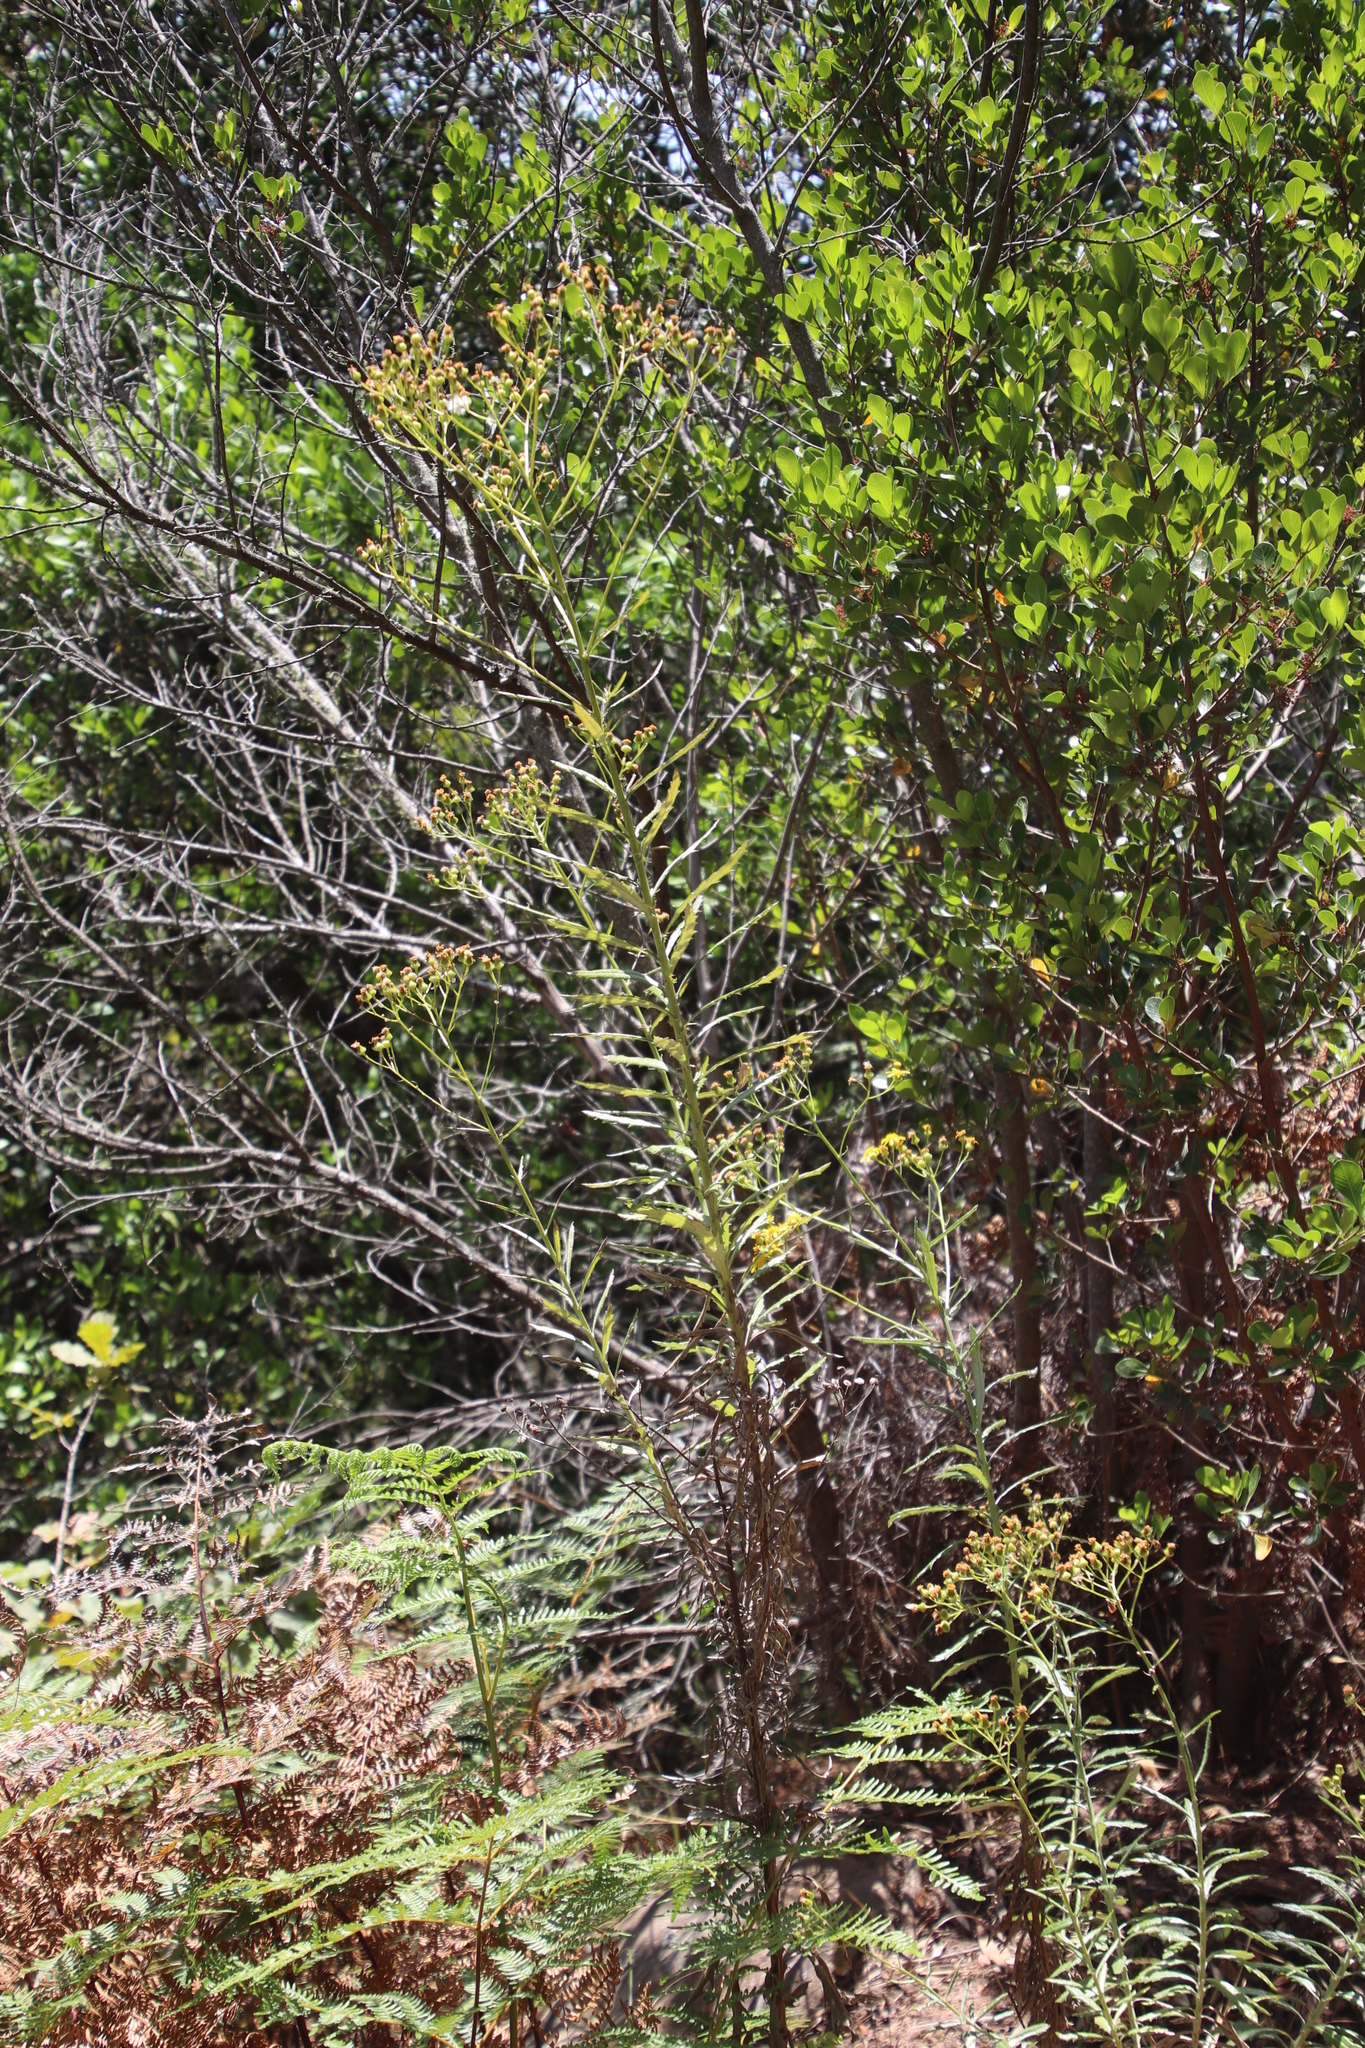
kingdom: Plantae
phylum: Tracheophyta
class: Magnoliopsida
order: Asterales
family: Asteraceae
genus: Senecio
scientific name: Senecio pterophorus
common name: Shoddy ragwort
